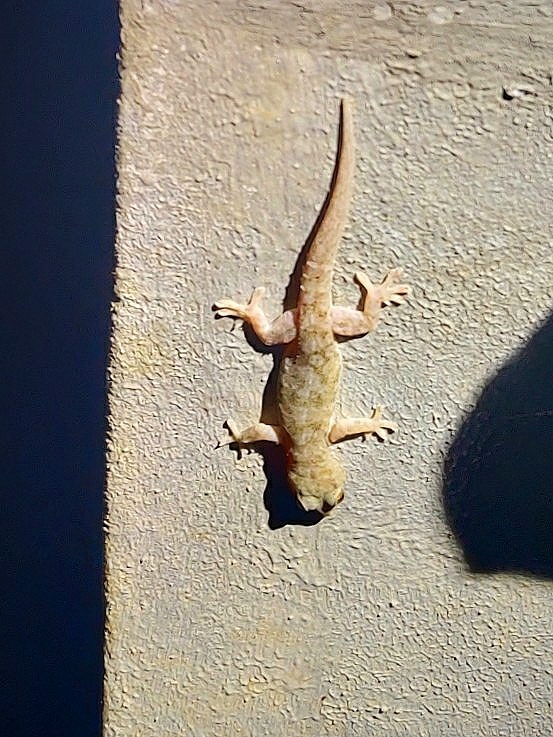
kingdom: Animalia
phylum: Chordata
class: Squamata
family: Gekkonidae
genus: Hemidactylus
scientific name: Hemidactylus brookii
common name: Brook's house gecko
